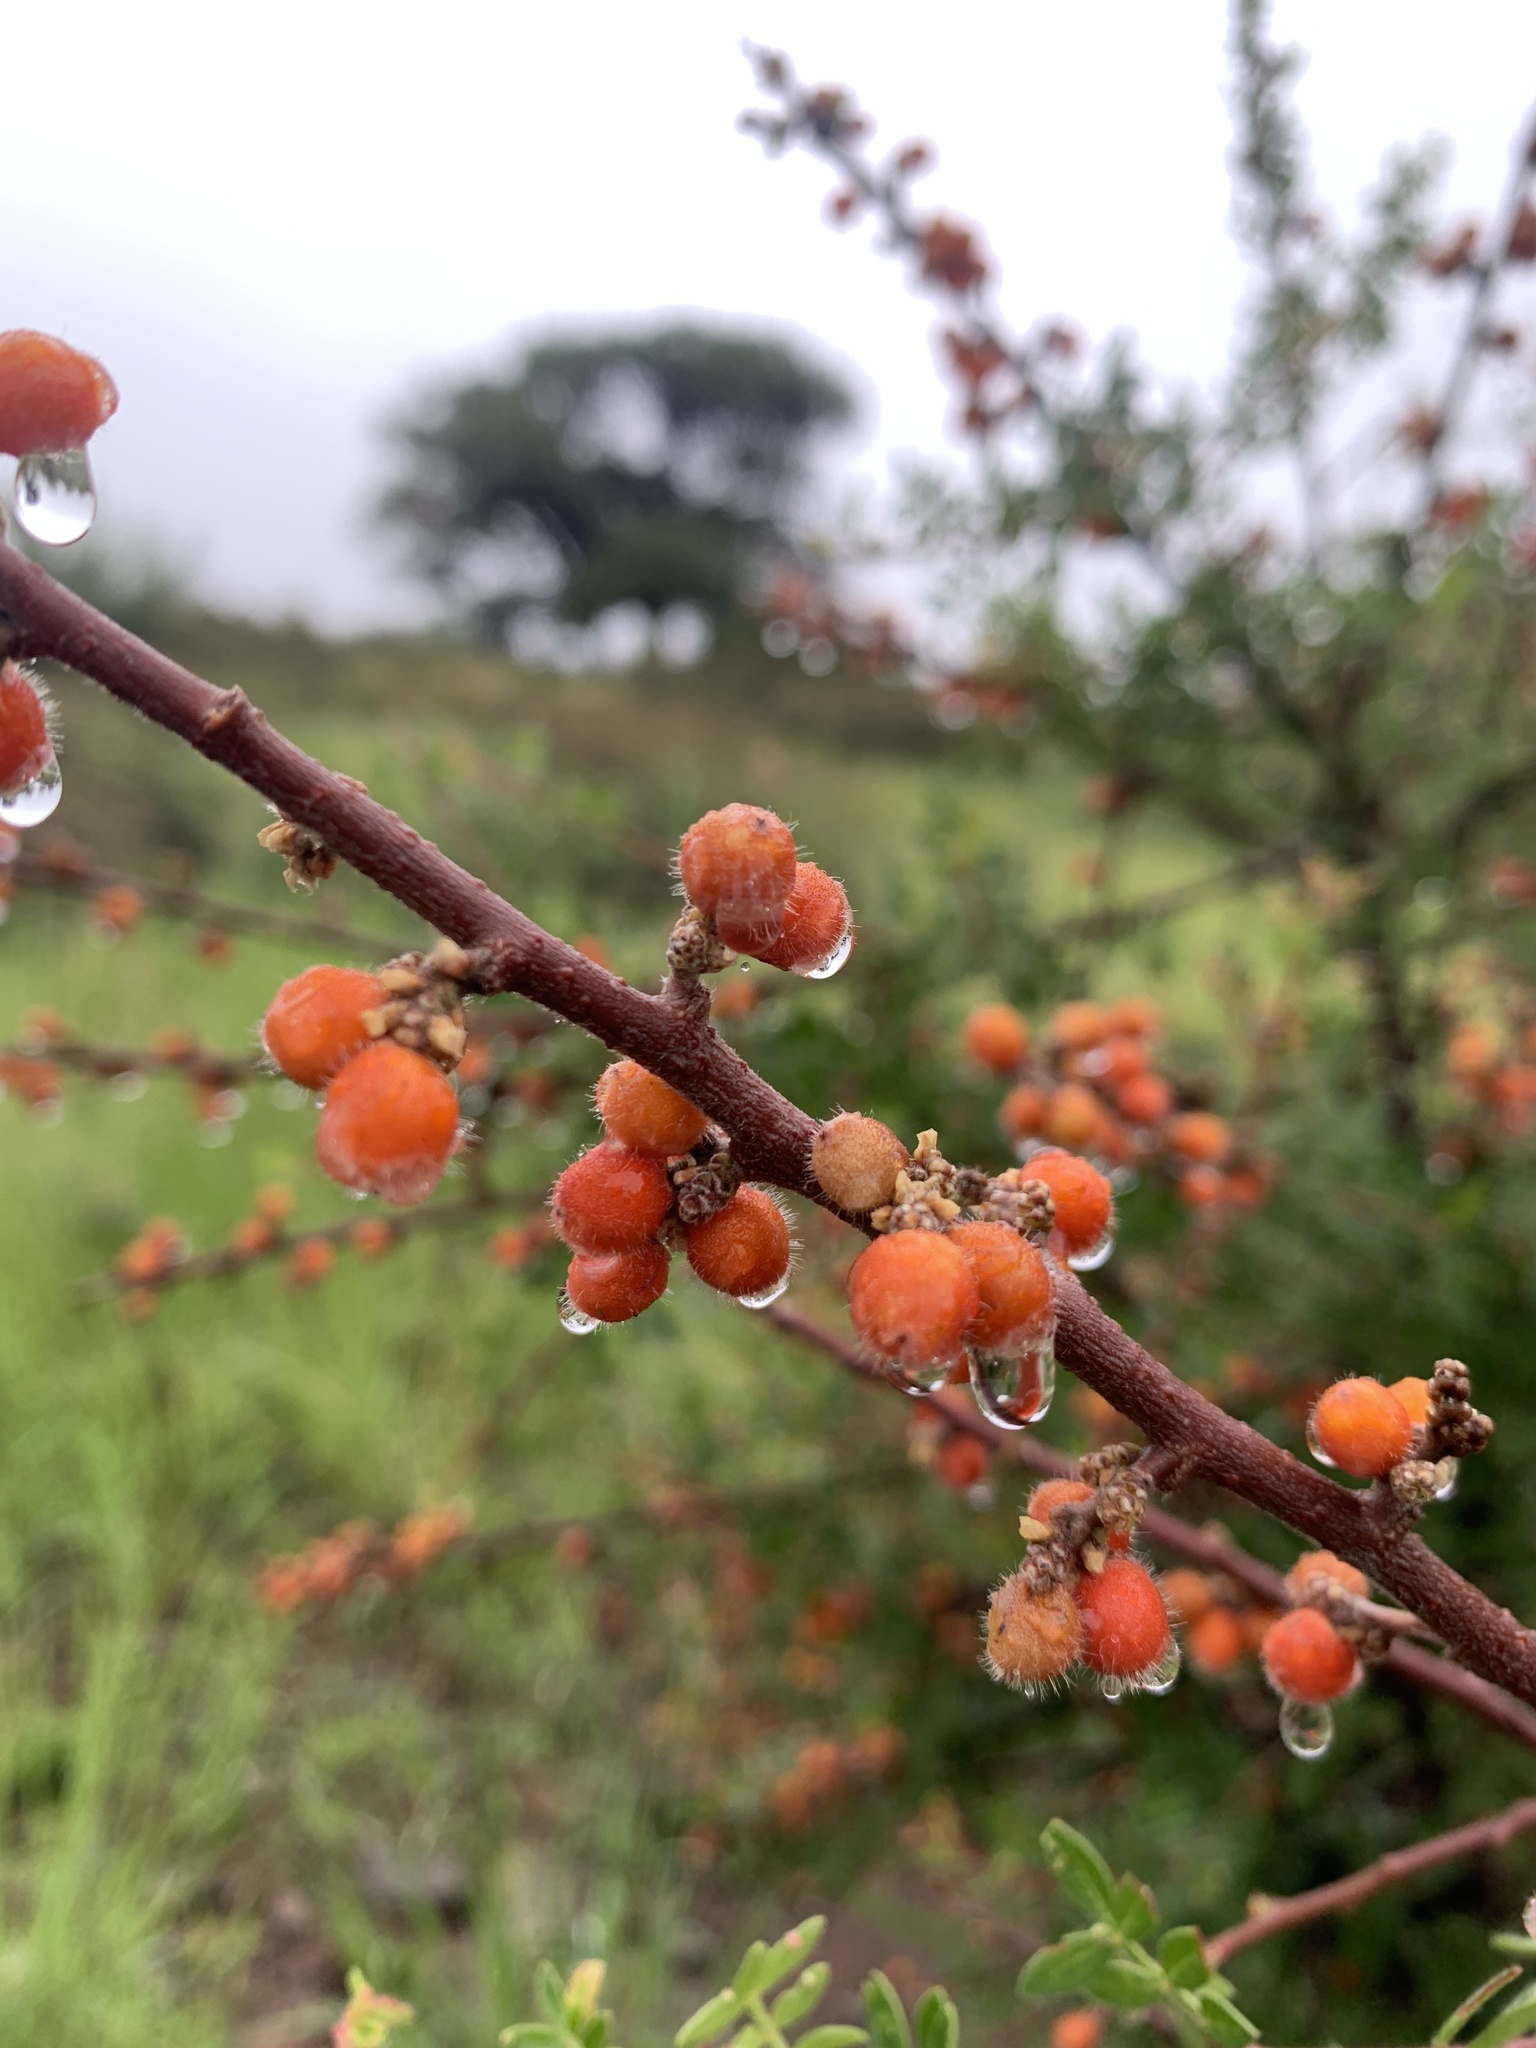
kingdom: Plantae
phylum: Tracheophyta
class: Magnoliopsida
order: Sapindales
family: Anacardiaceae
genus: Rhus
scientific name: Rhus microphylla
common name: Desert sumac
